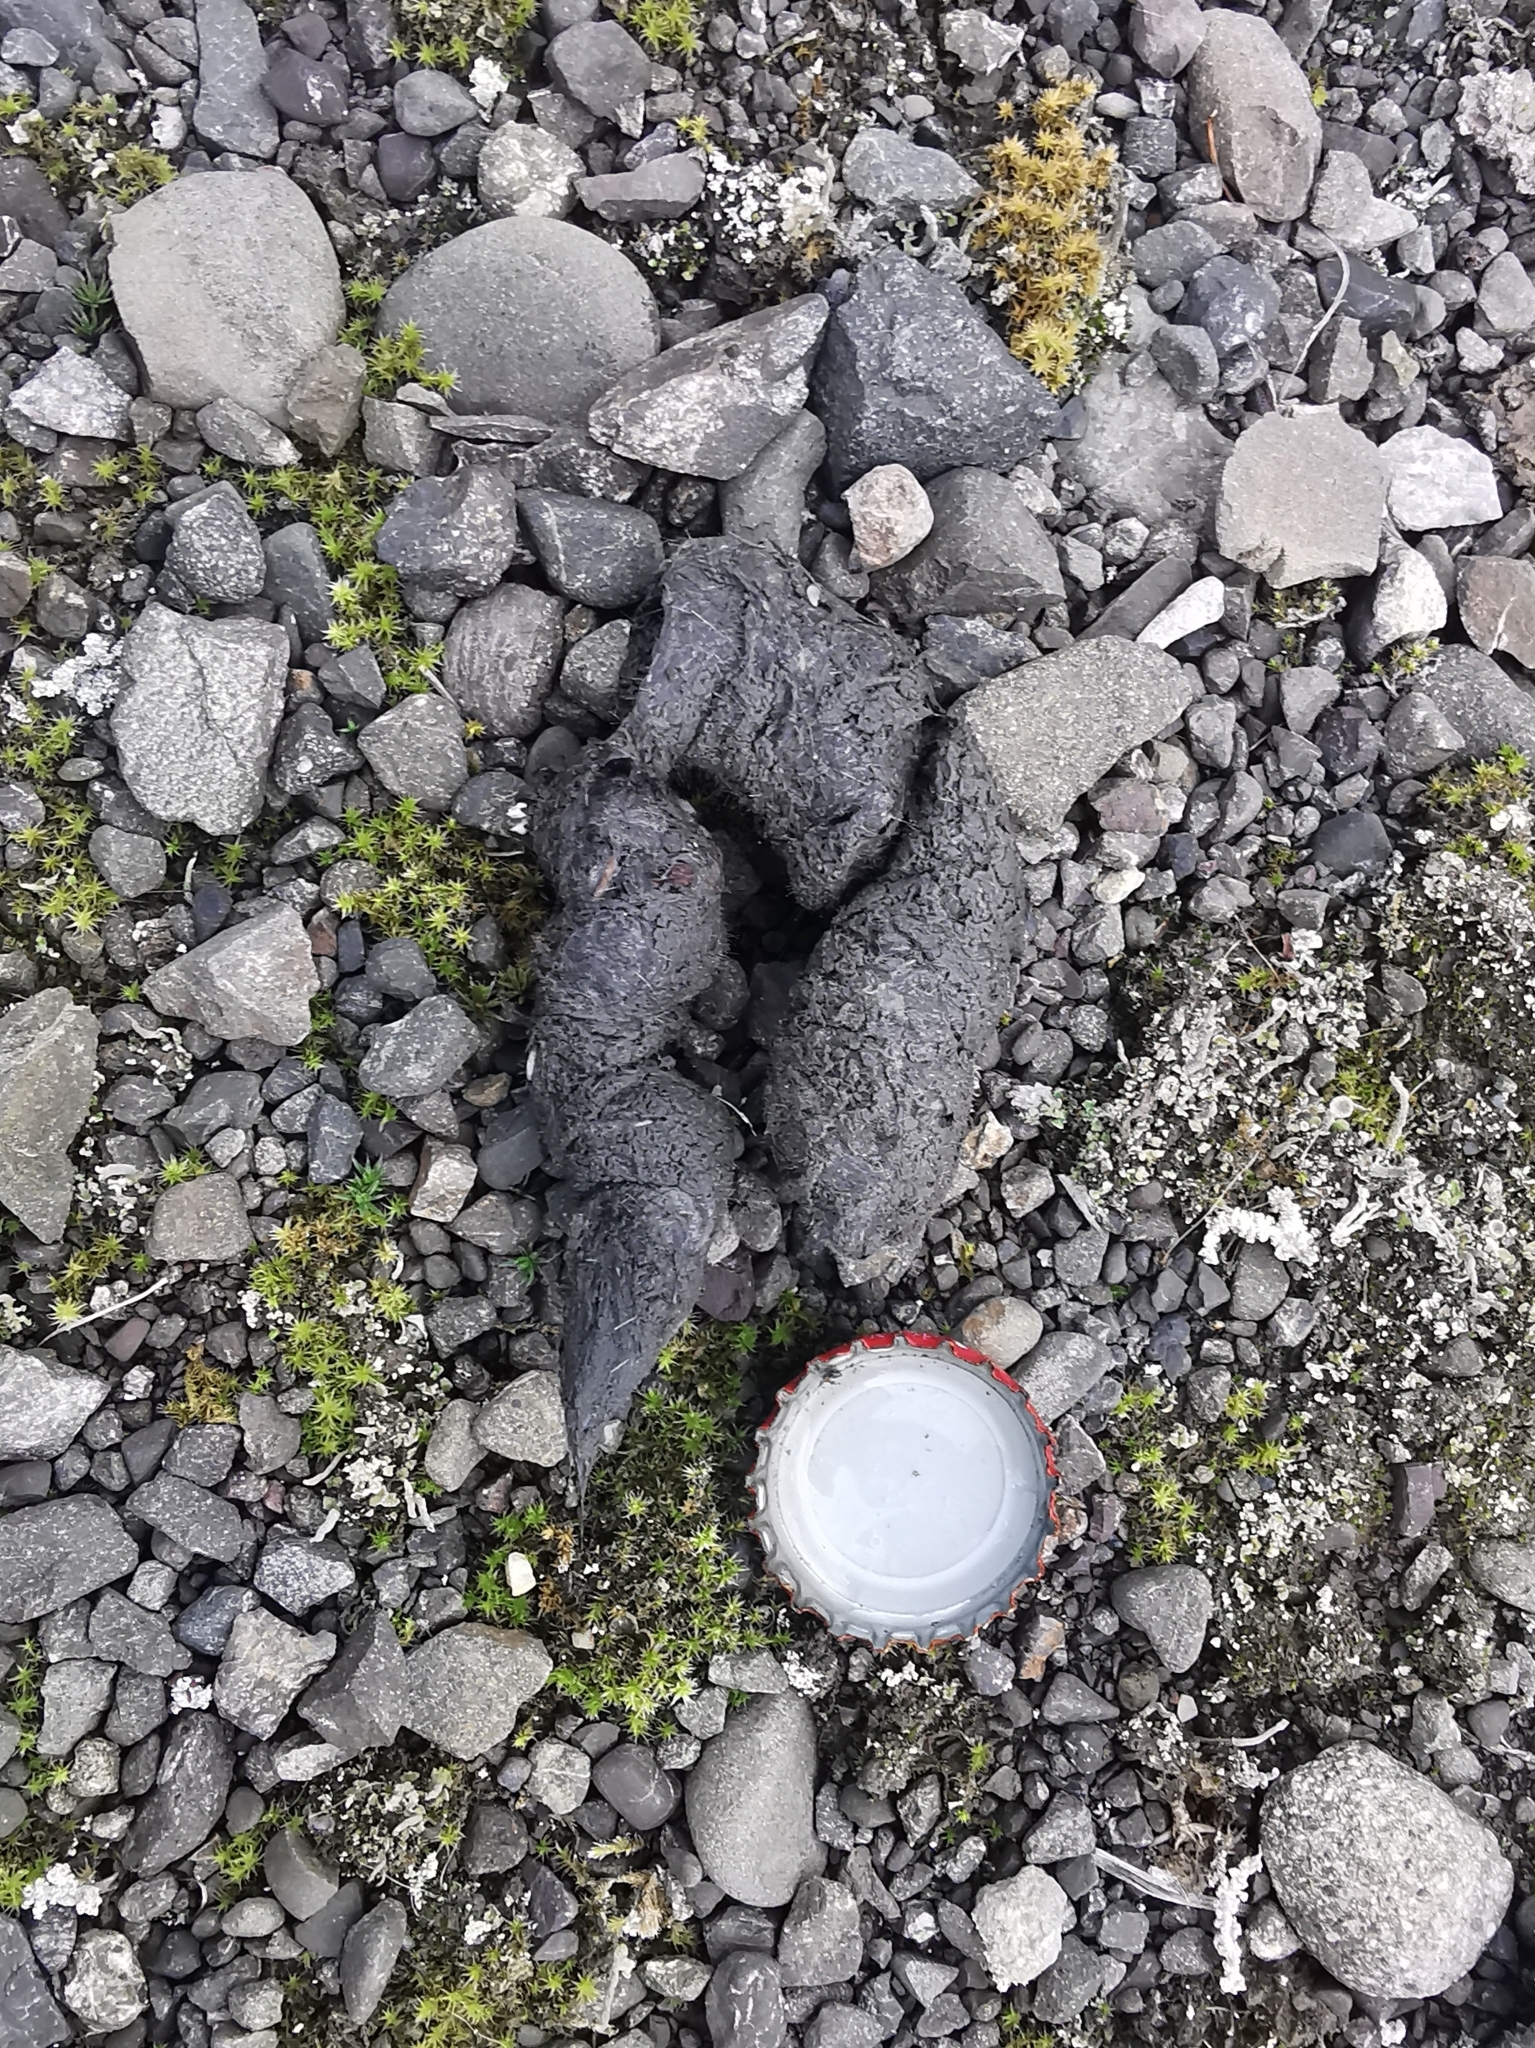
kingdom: Animalia
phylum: Chordata
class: Mammalia
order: Carnivora
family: Canidae
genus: Vulpes
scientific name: Vulpes vulpes
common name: Red fox
